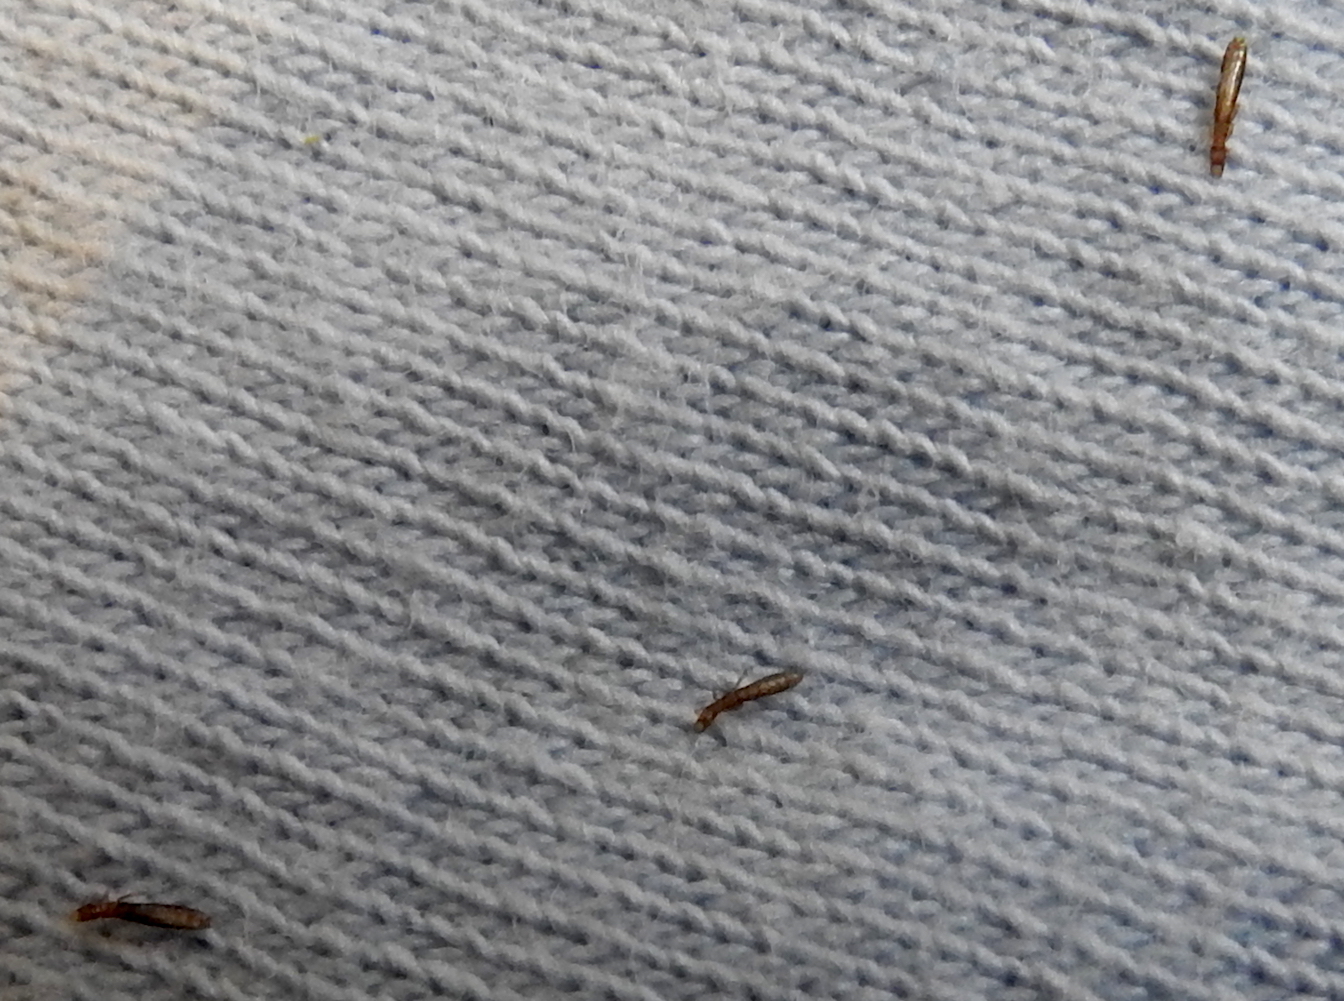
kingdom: Animalia
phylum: Arthropoda
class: Insecta
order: Psocodea
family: Philopteridae
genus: Columbicola
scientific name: Columbicola columbae
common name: Louse
